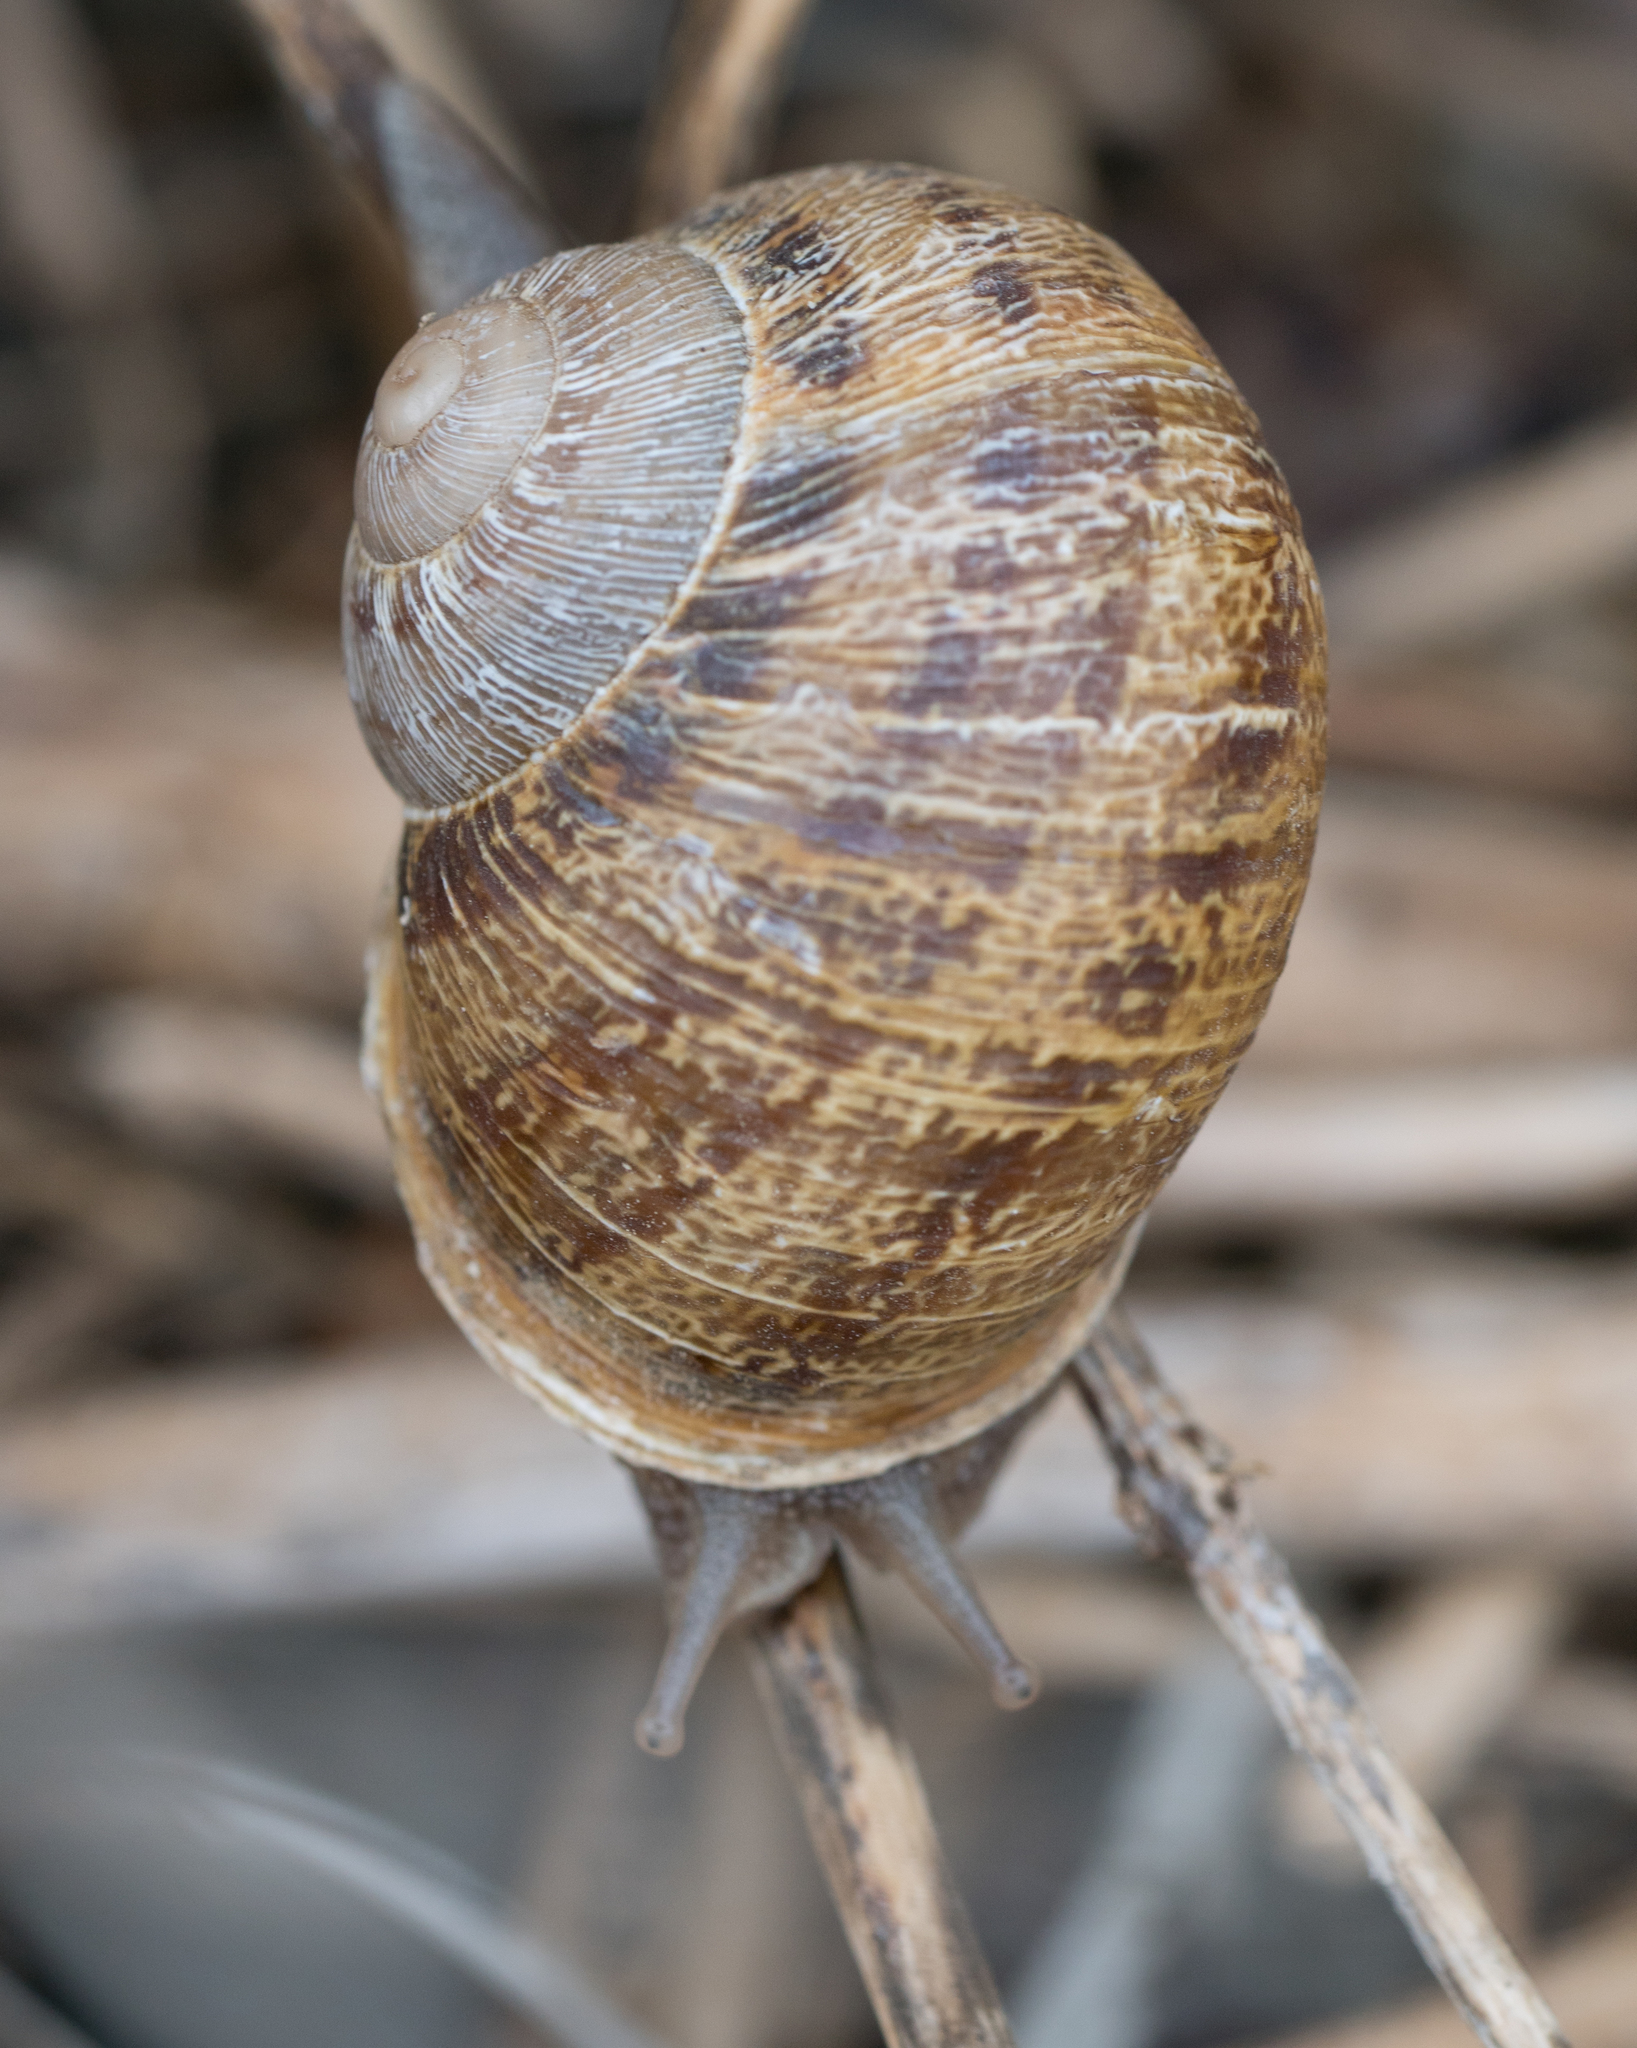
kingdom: Animalia
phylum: Mollusca
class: Gastropoda
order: Stylommatophora
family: Helicidae
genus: Cornu
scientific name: Cornu aspersum
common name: Brown garden snail
